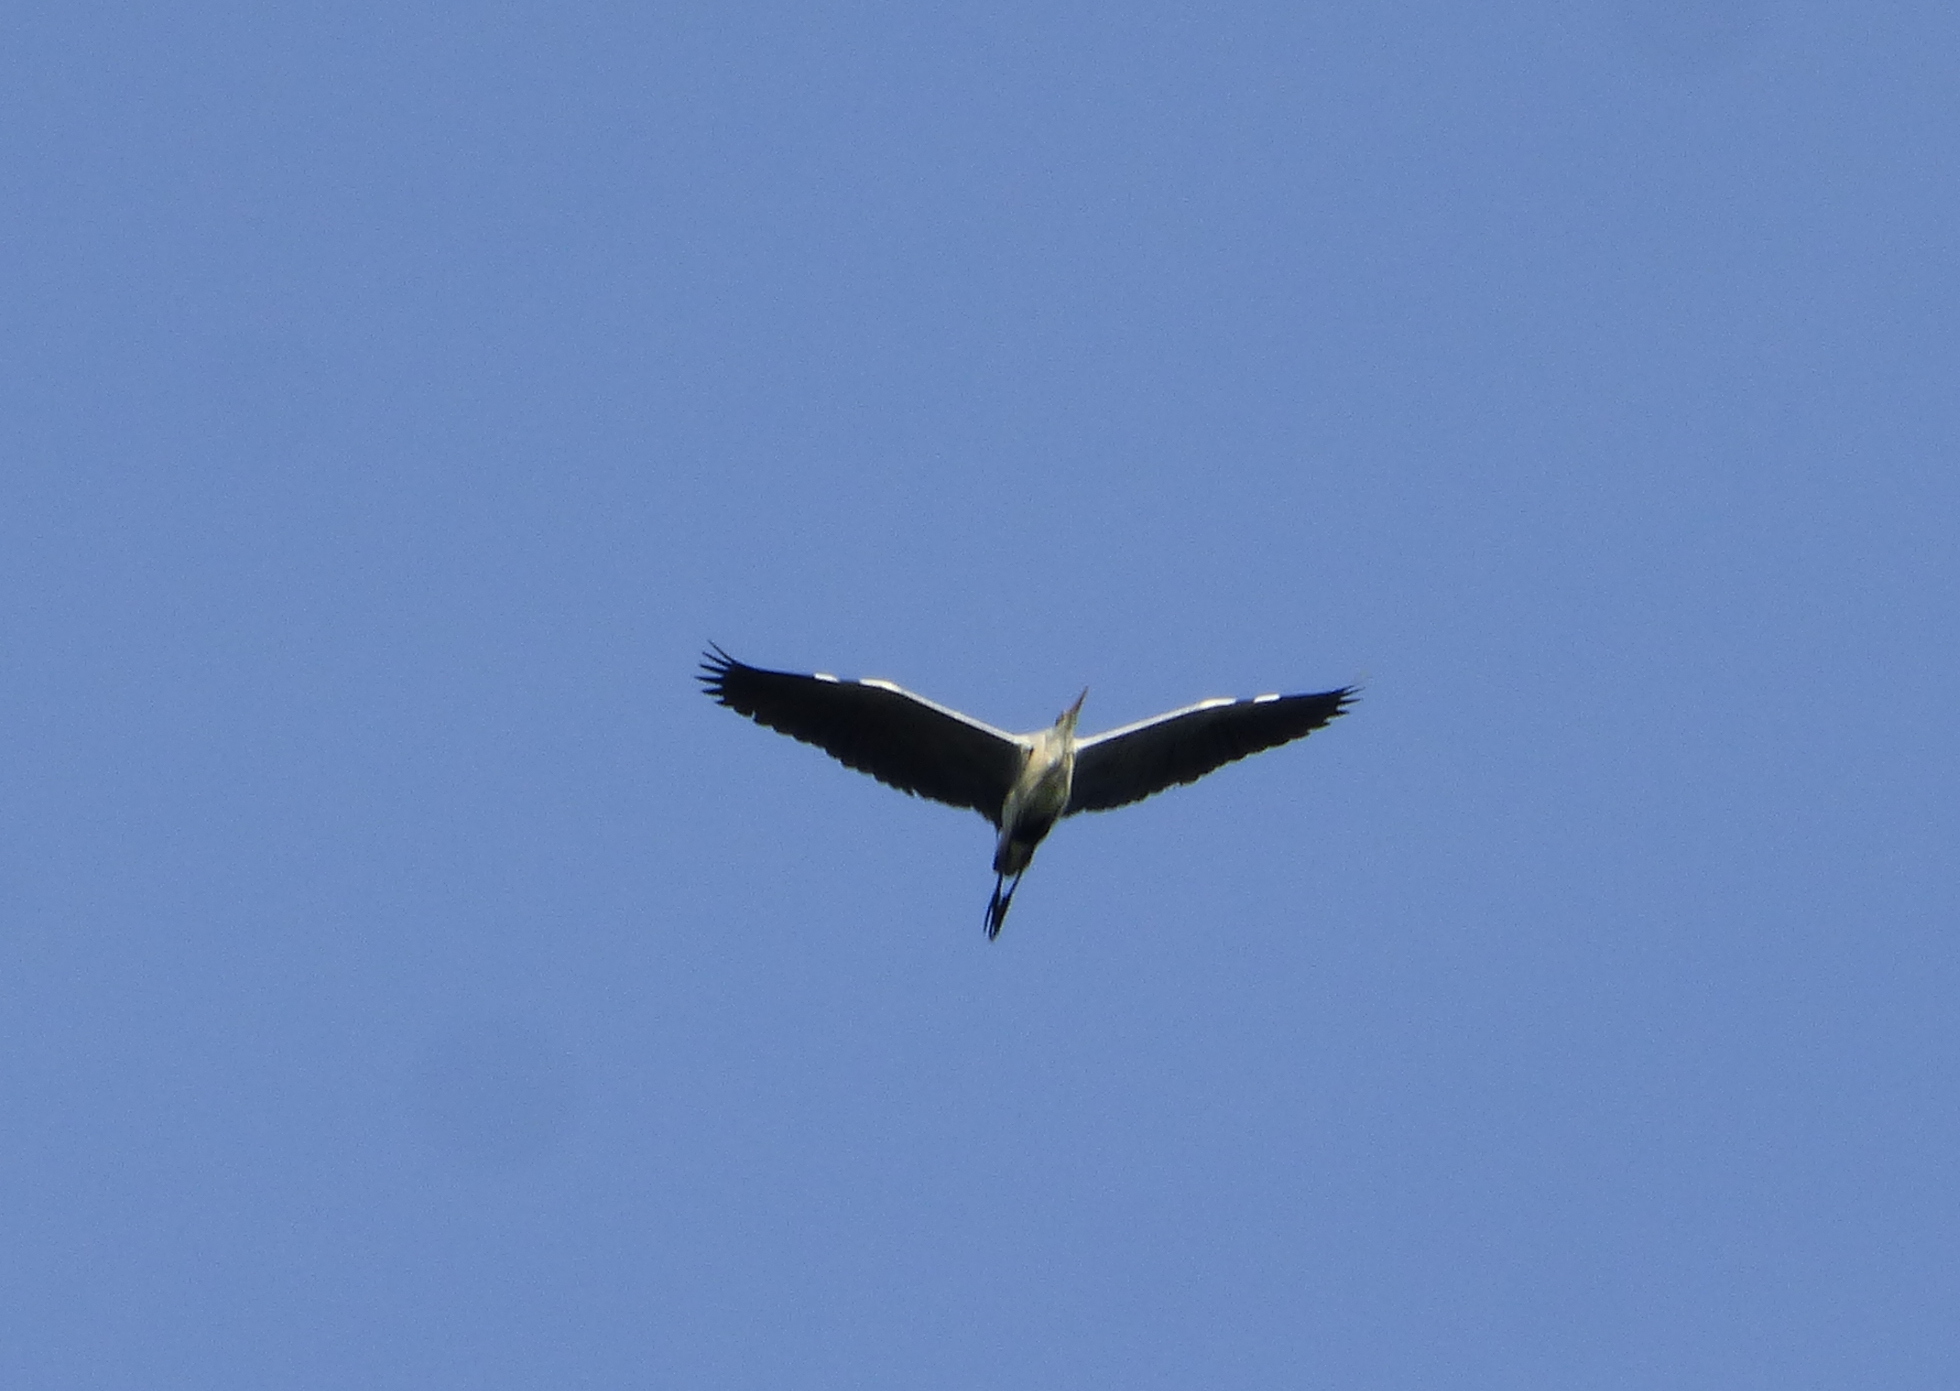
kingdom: Animalia
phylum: Chordata
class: Aves
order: Pelecaniformes
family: Ardeidae
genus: Ardea
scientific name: Ardea cocoi
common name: Cocoi heron
